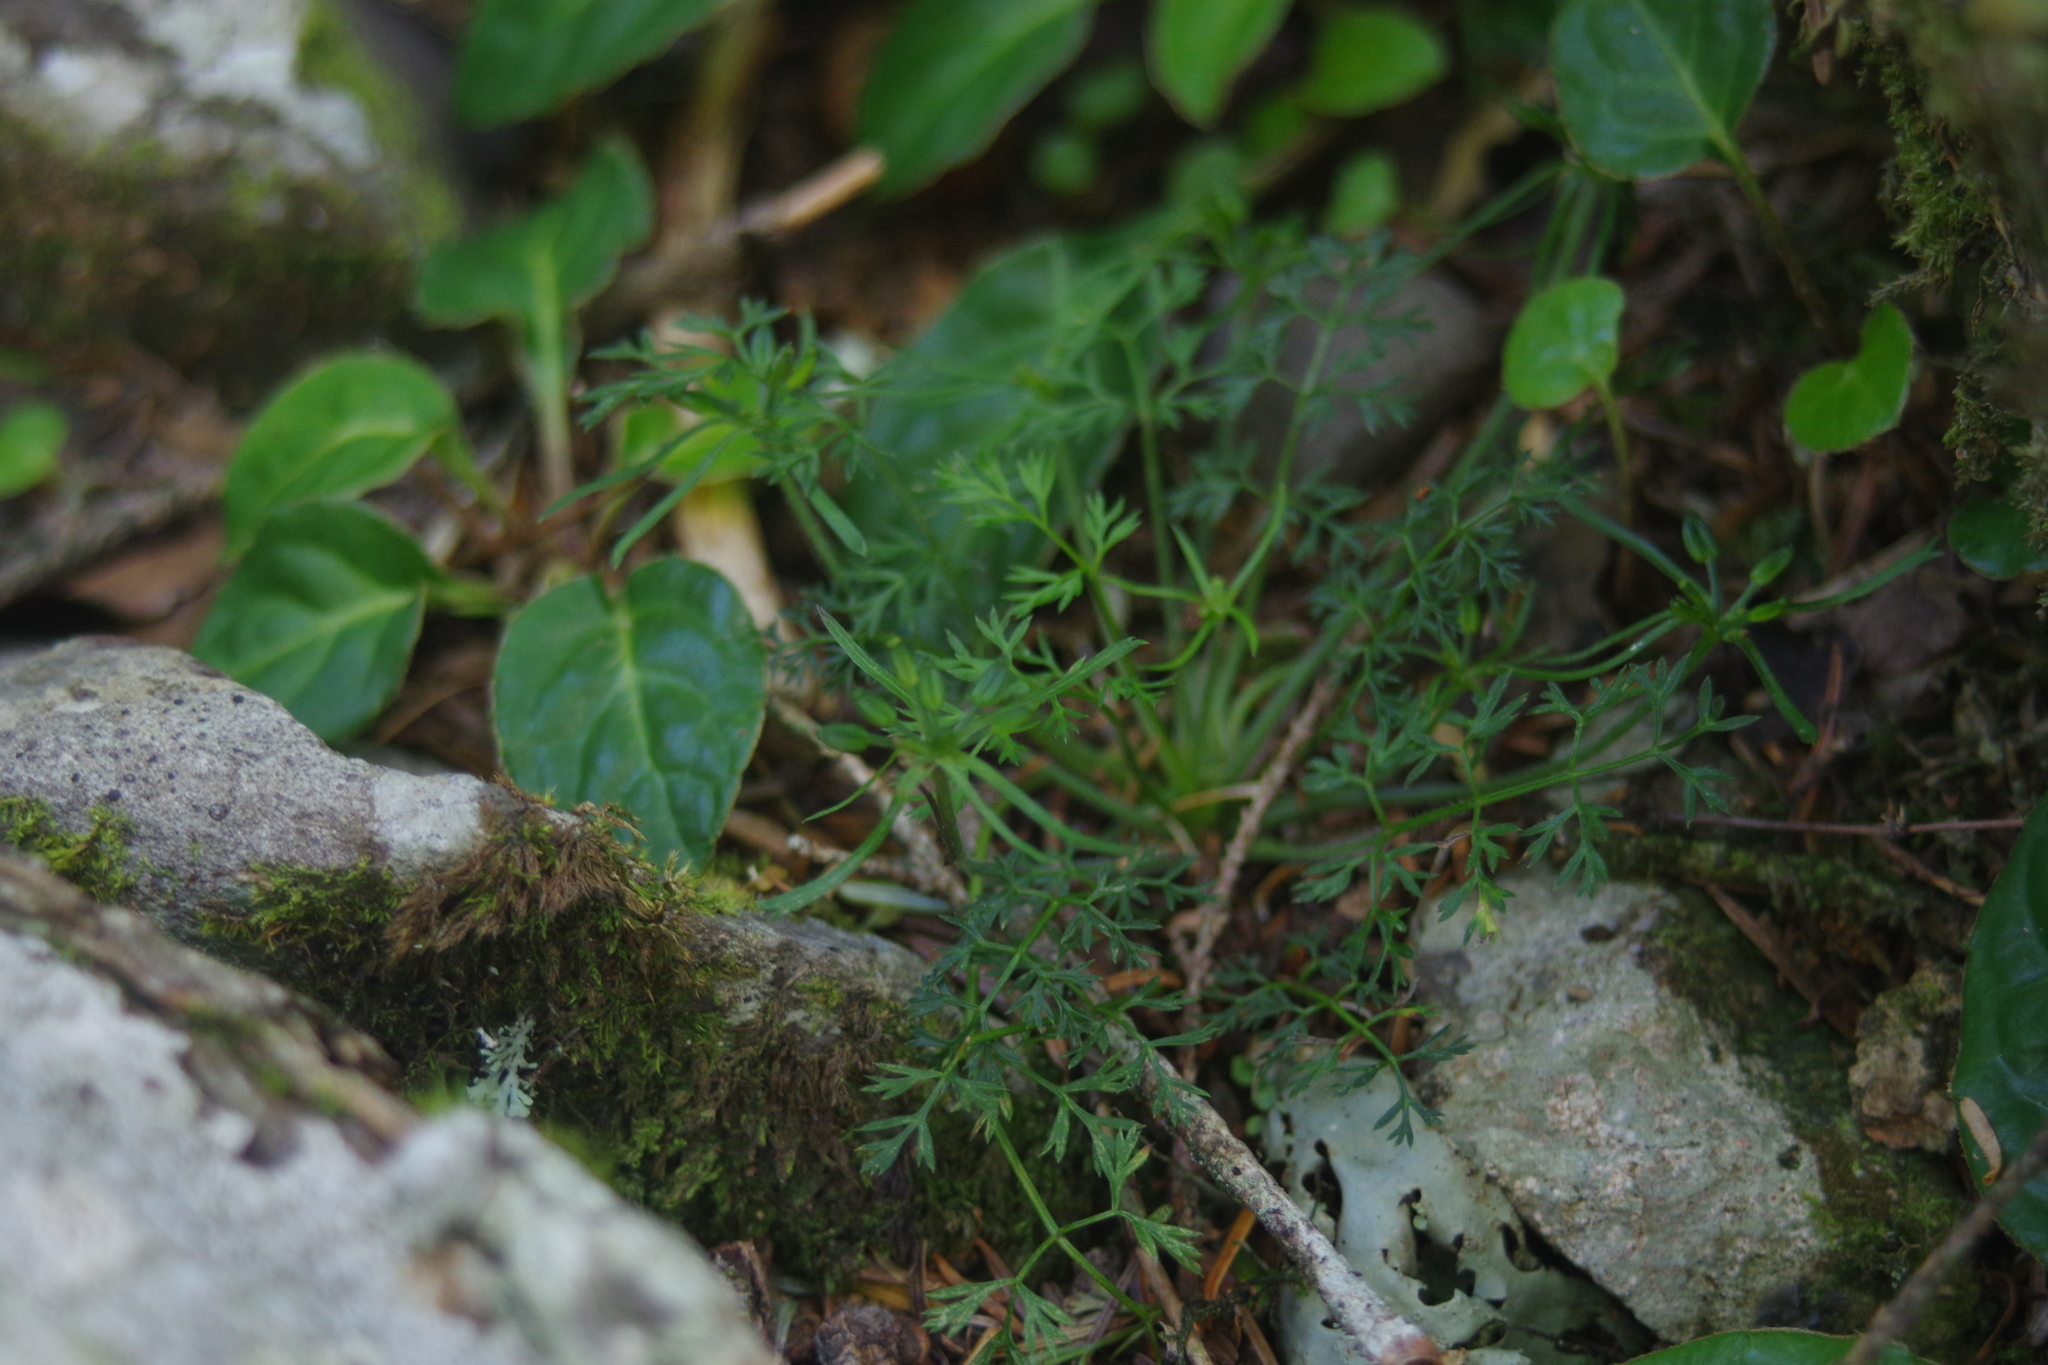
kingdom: Plantae
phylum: Tracheophyta
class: Magnoliopsida
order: Apiales
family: Apiaceae
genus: Chaerophyllum
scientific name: Chaerophyllum involucratum
